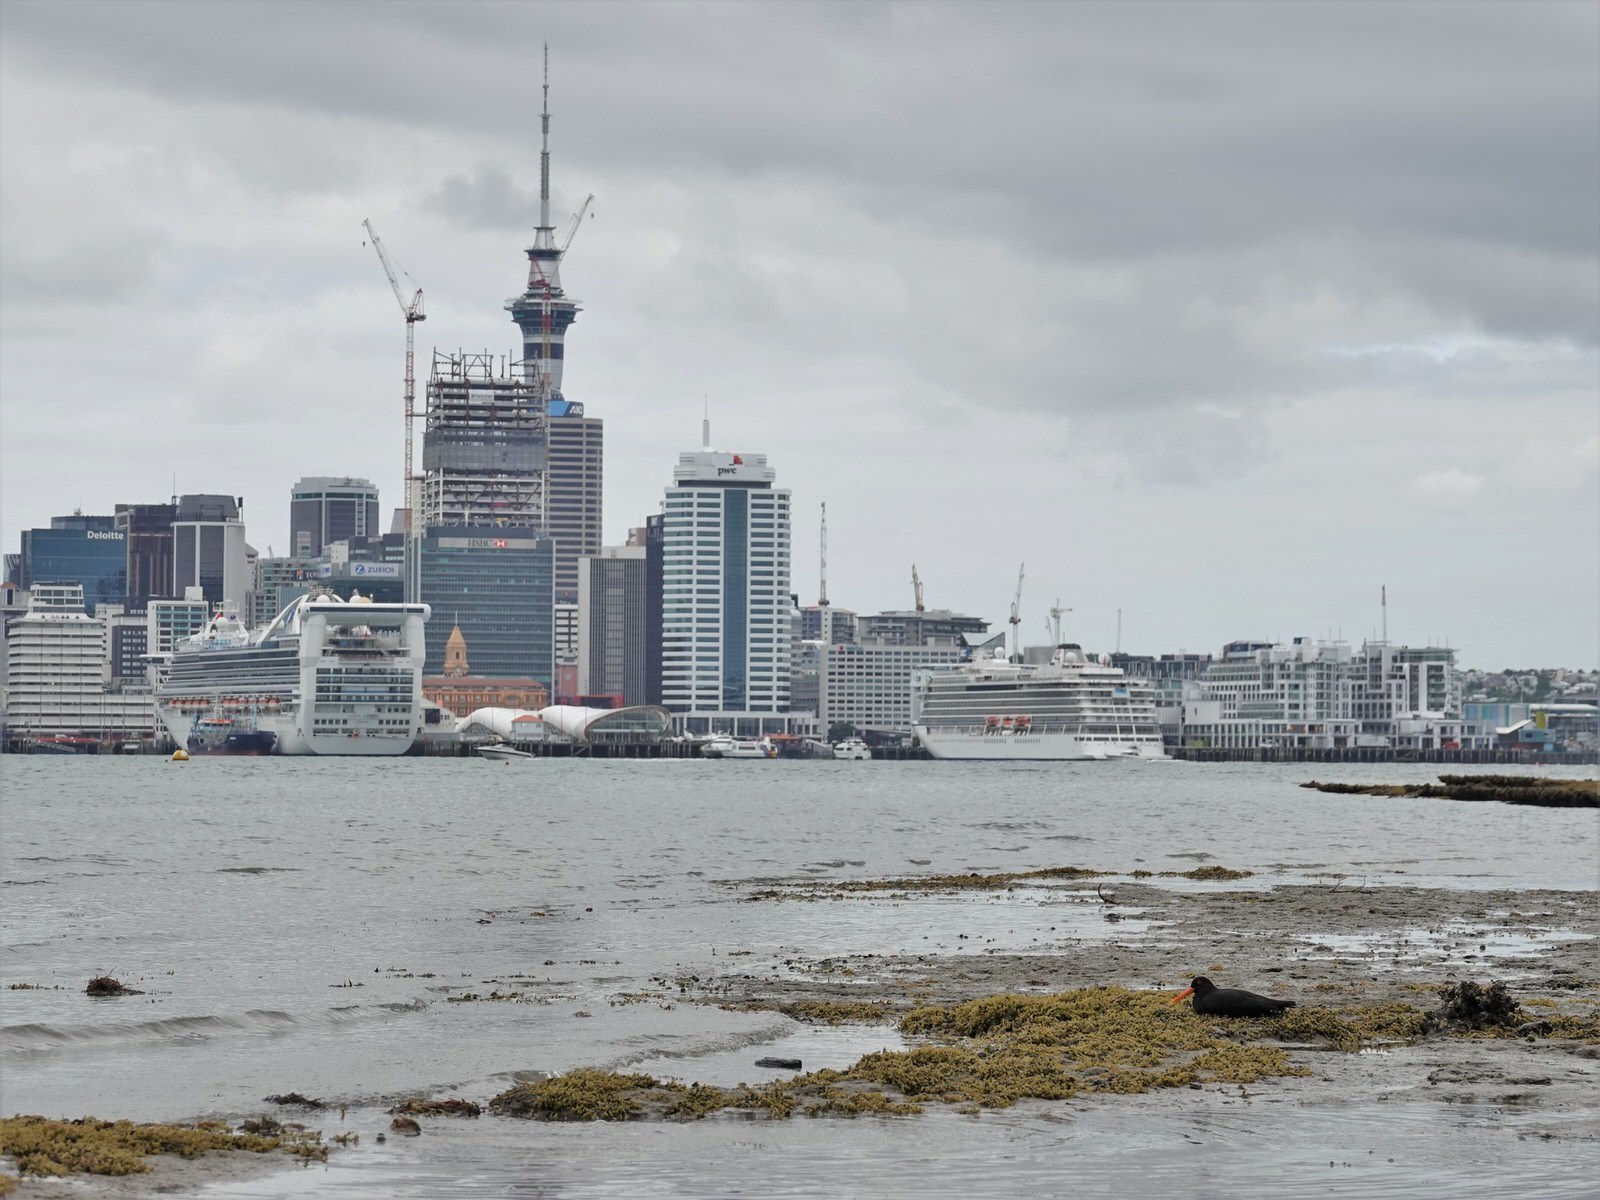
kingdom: Animalia
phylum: Chordata
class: Aves
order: Charadriiformes
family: Haematopodidae
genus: Haematopus
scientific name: Haematopus unicolor
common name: Variable oystercatcher
